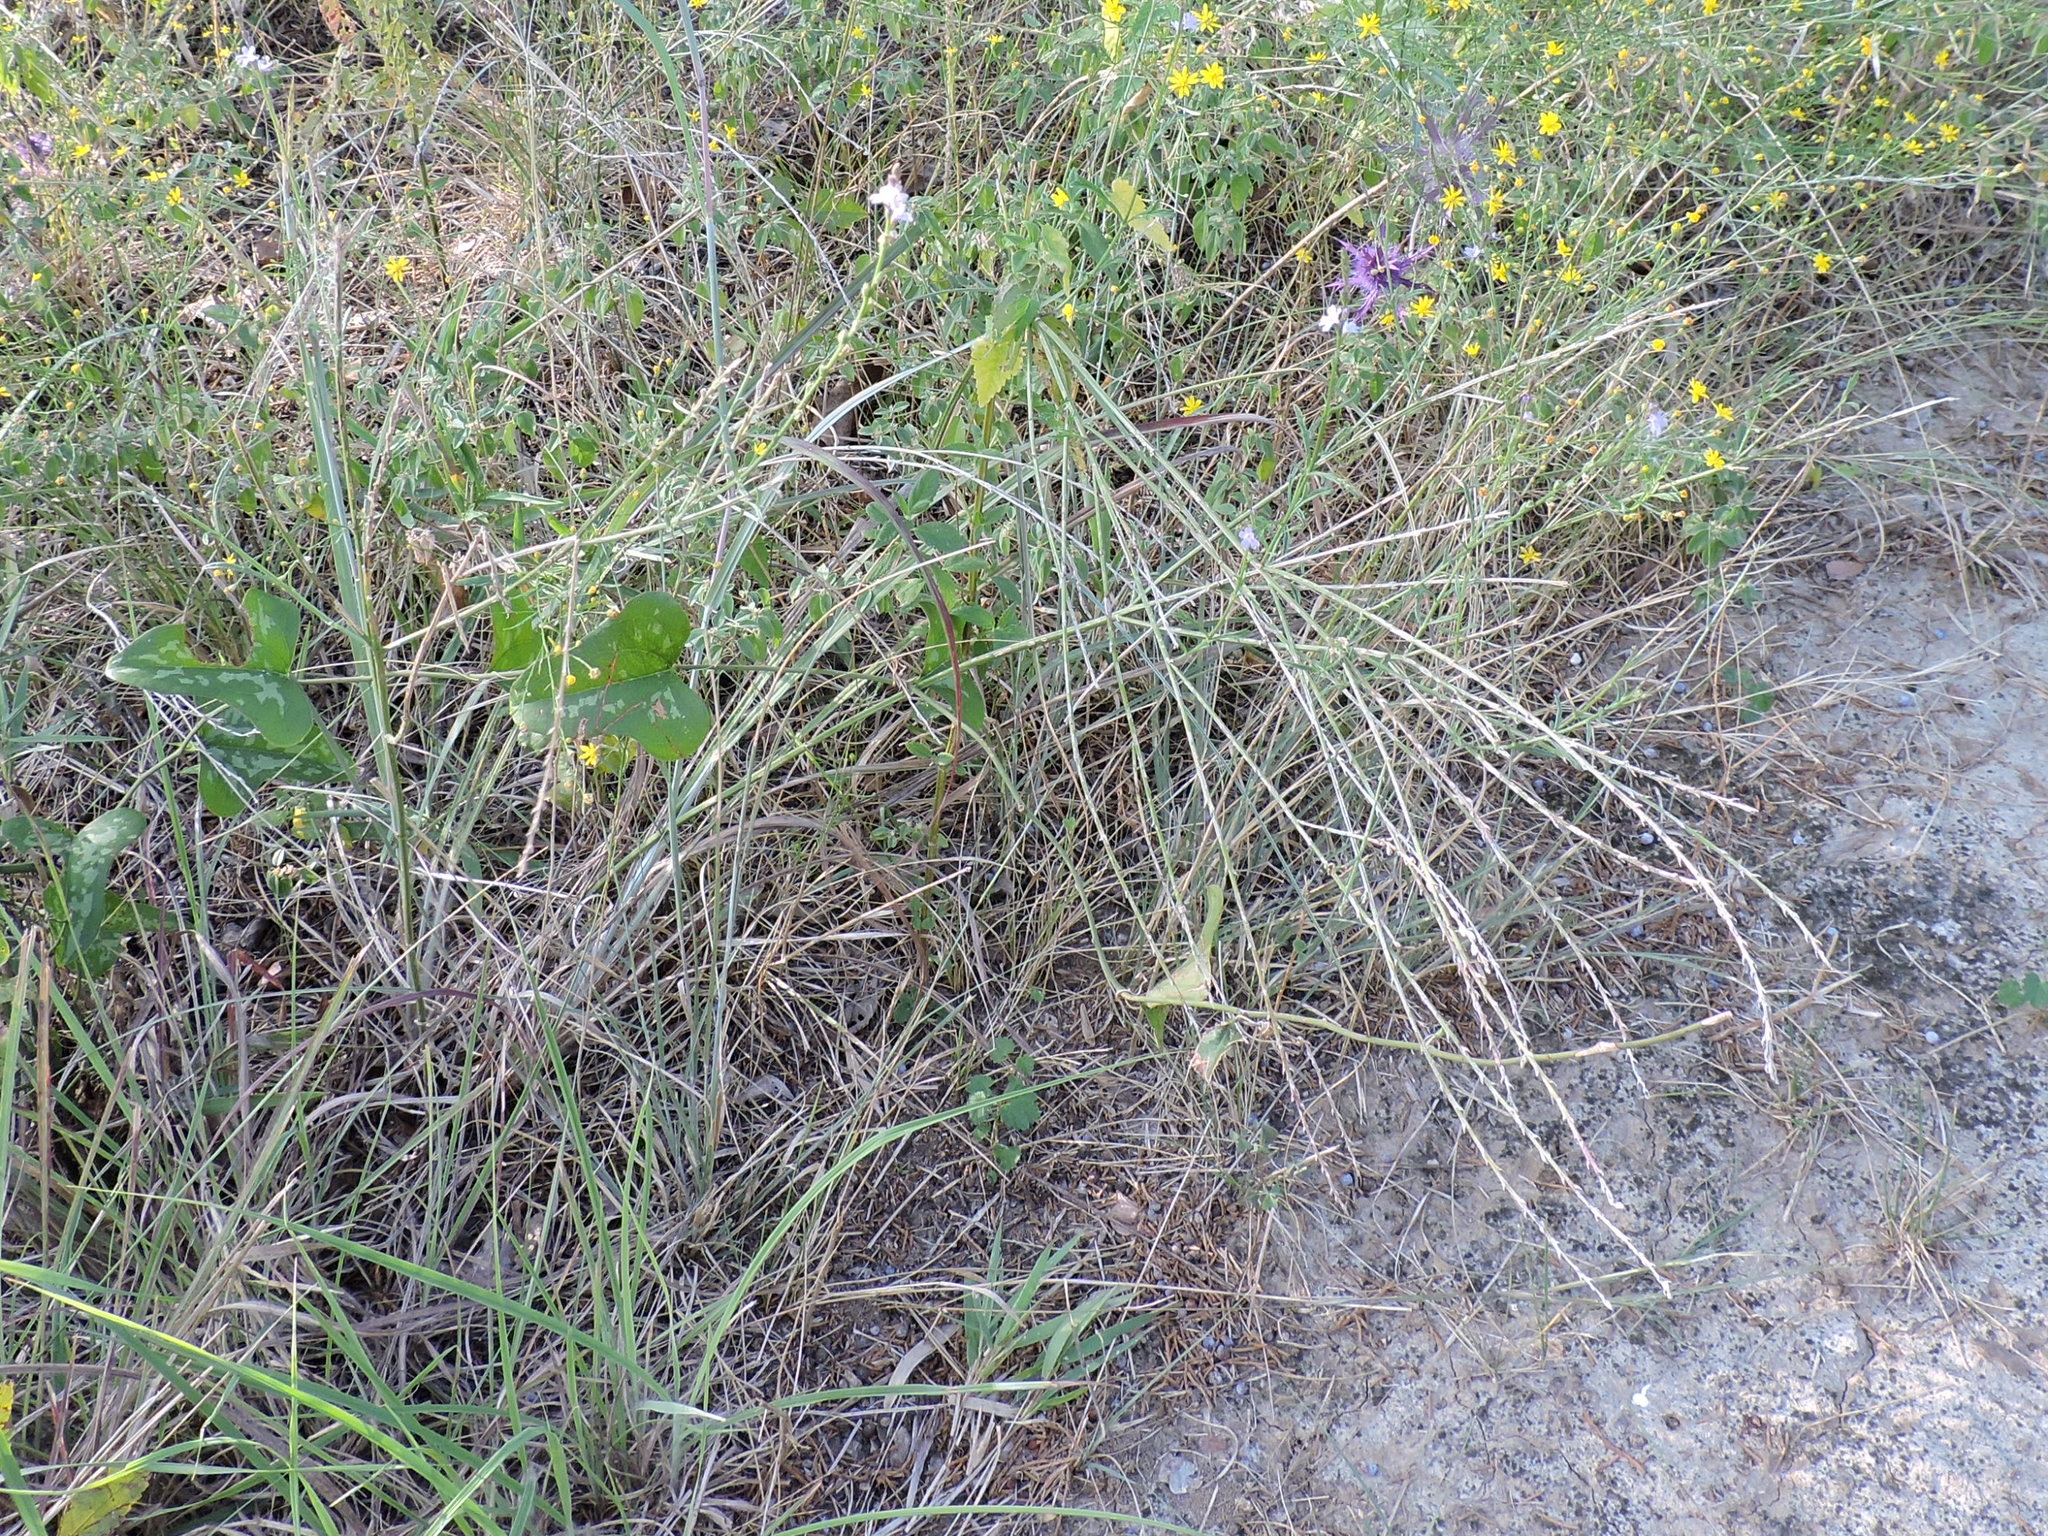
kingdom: Plantae
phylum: Tracheophyta
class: Magnoliopsida
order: Lamiales
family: Verbenaceae
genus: Verbena
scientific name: Verbena halei
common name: Texas vervain
